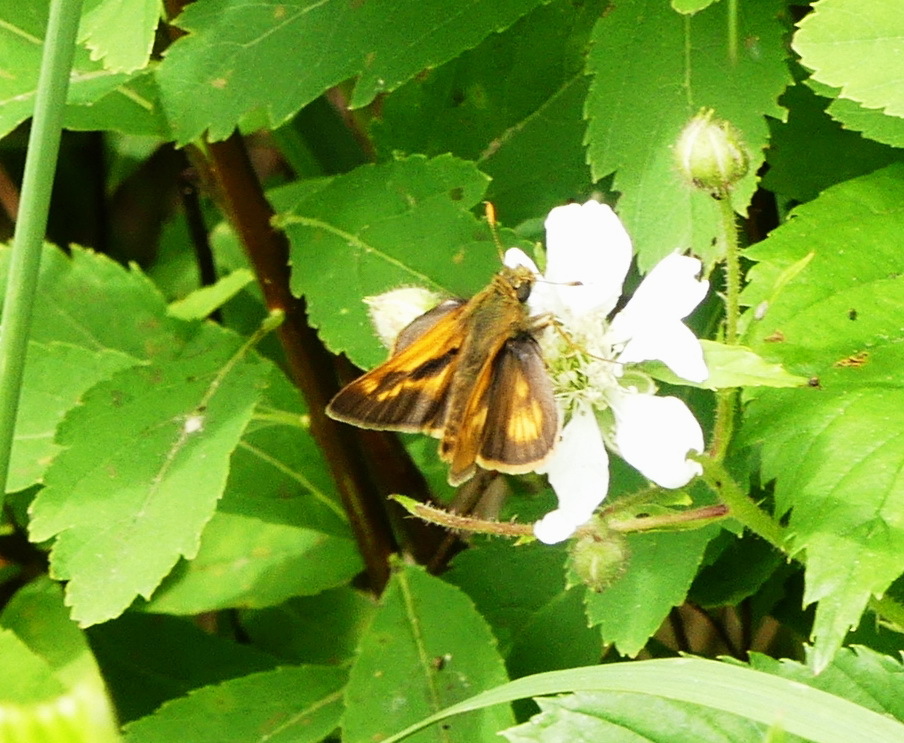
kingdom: Animalia
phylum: Arthropoda
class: Insecta
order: Lepidoptera
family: Hesperiidae
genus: Polites
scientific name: Polites mystic
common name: Long dash
